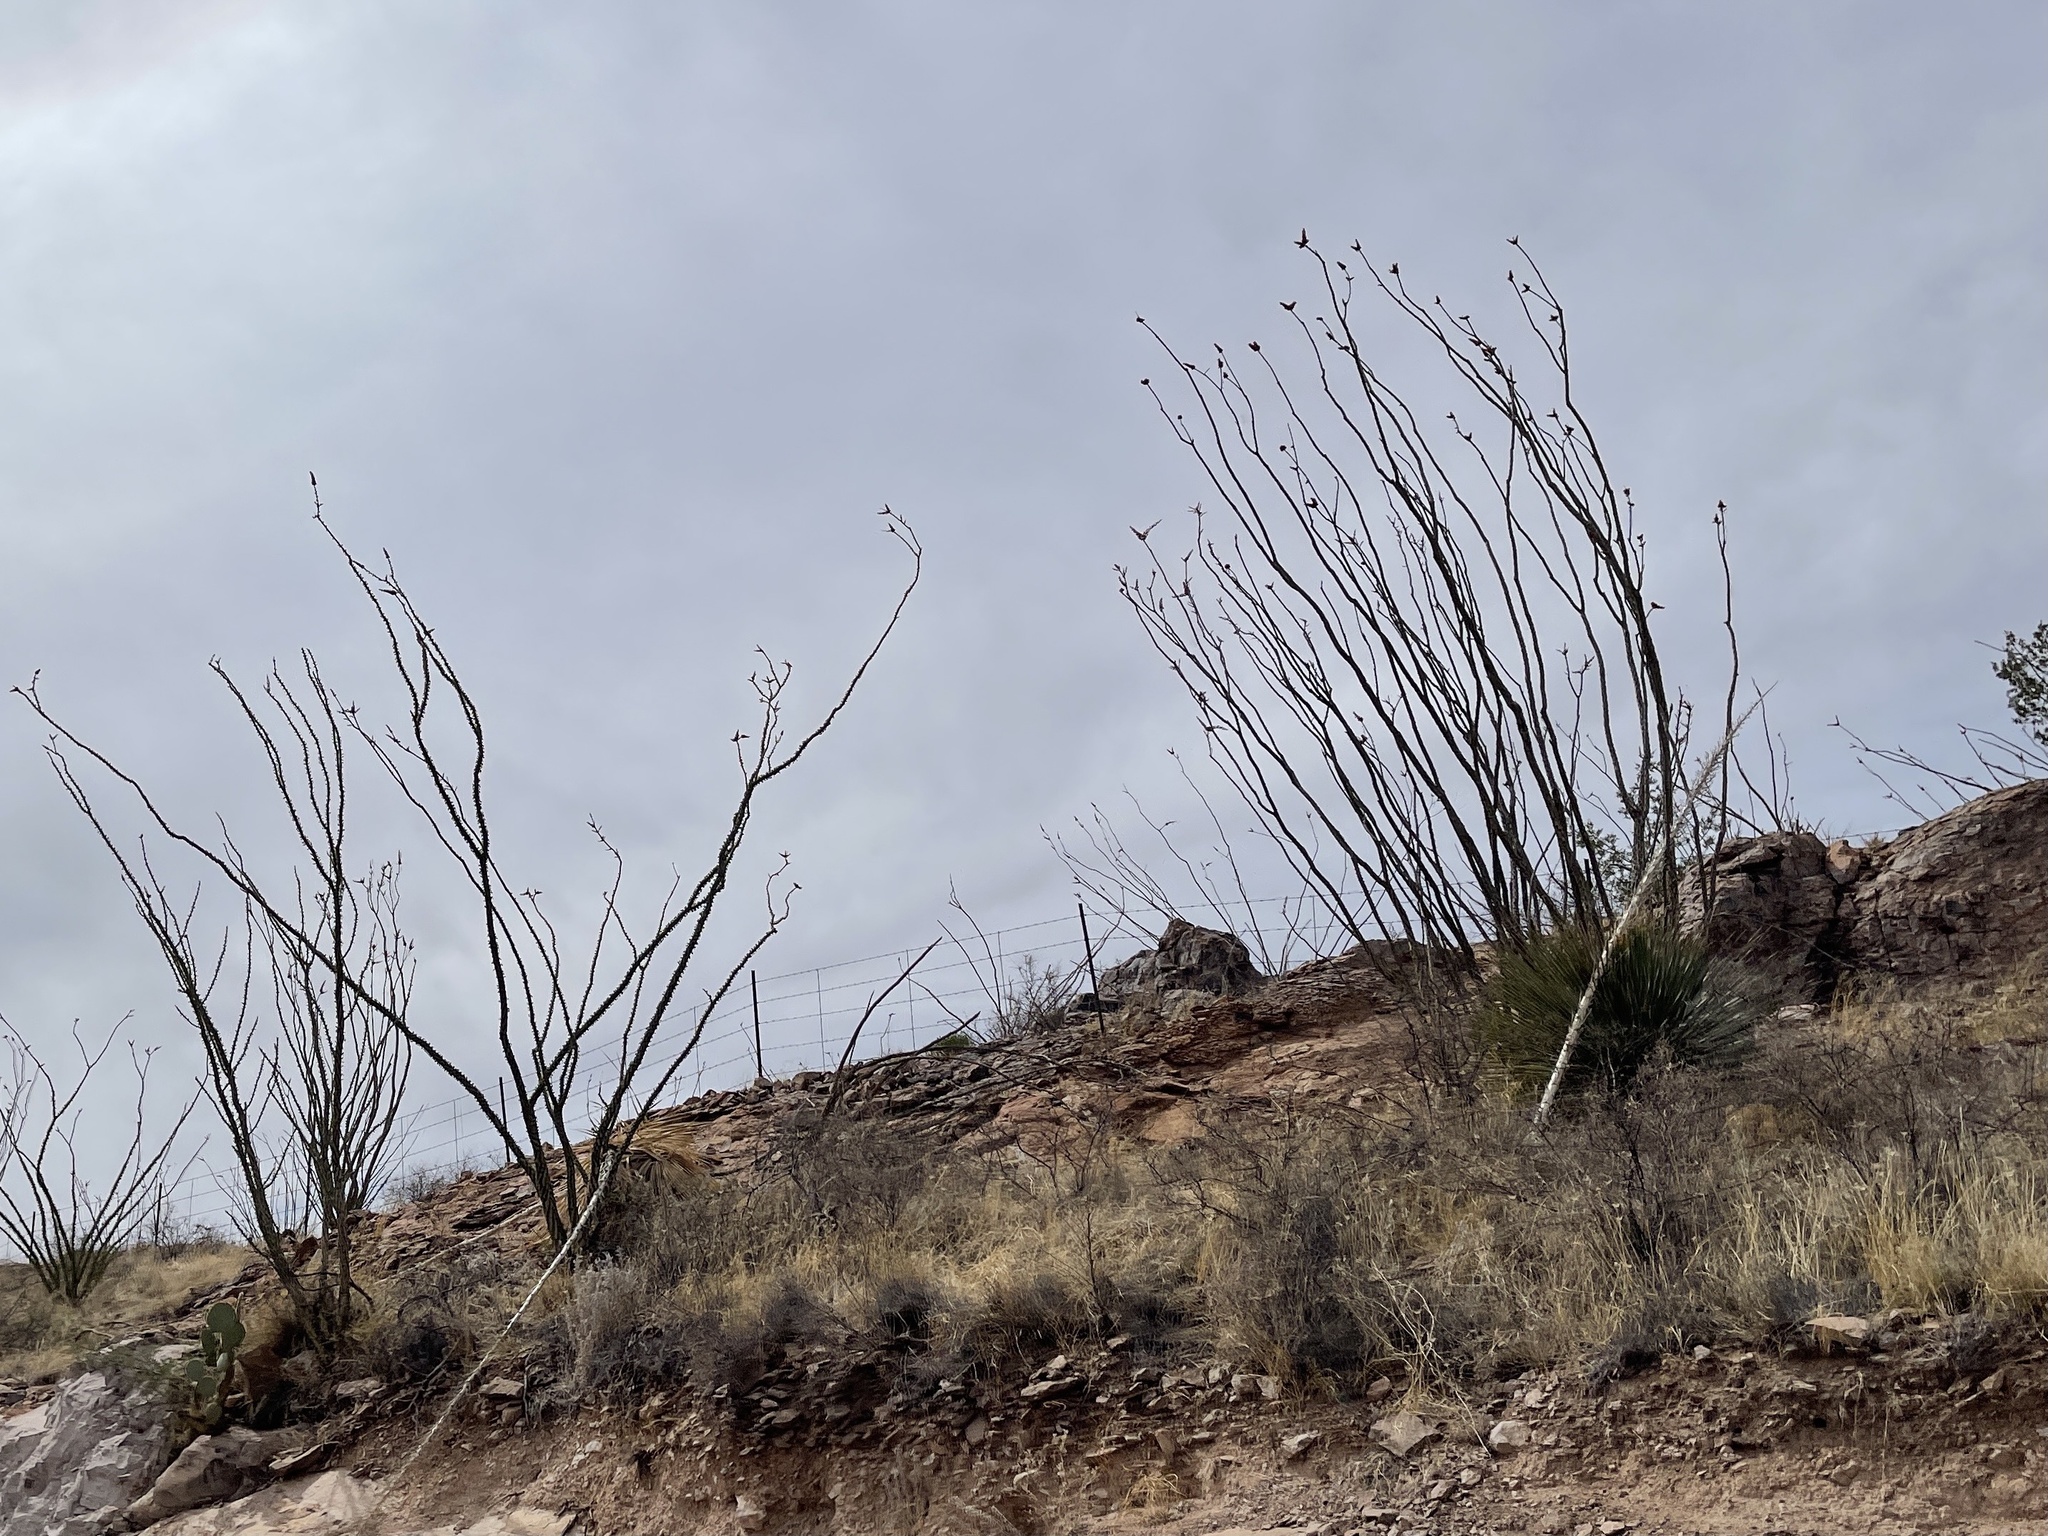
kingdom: Plantae
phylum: Tracheophyta
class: Magnoliopsida
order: Ericales
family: Fouquieriaceae
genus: Fouquieria
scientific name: Fouquieria splendens
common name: Vine-cactus
